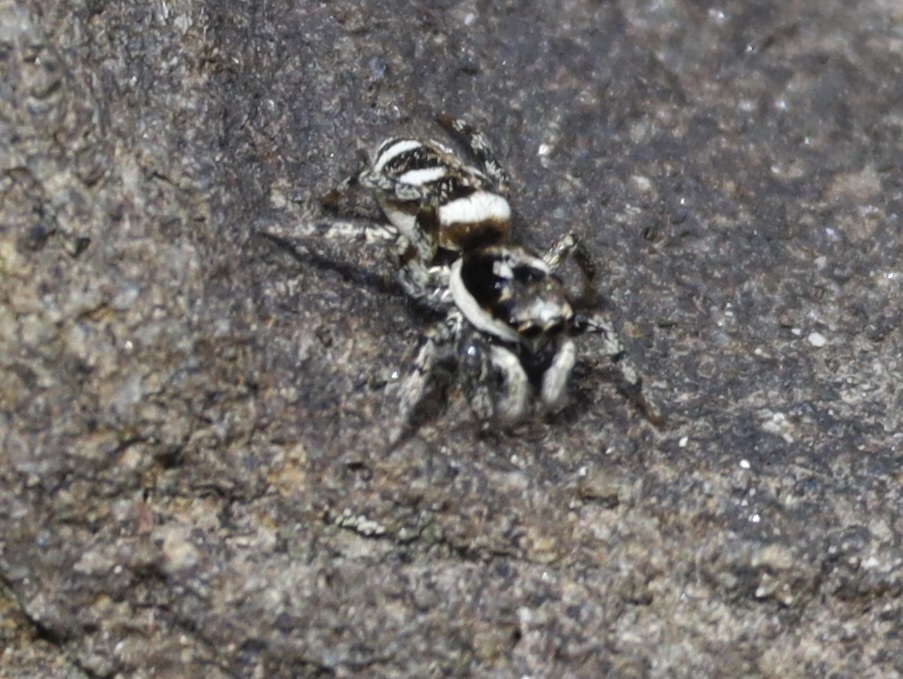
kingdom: Animalia
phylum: Arthropoda
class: Arachnida
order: Araneae
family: Salticidae
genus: Salticus
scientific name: Salticus scenicus
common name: Zebra jumper
